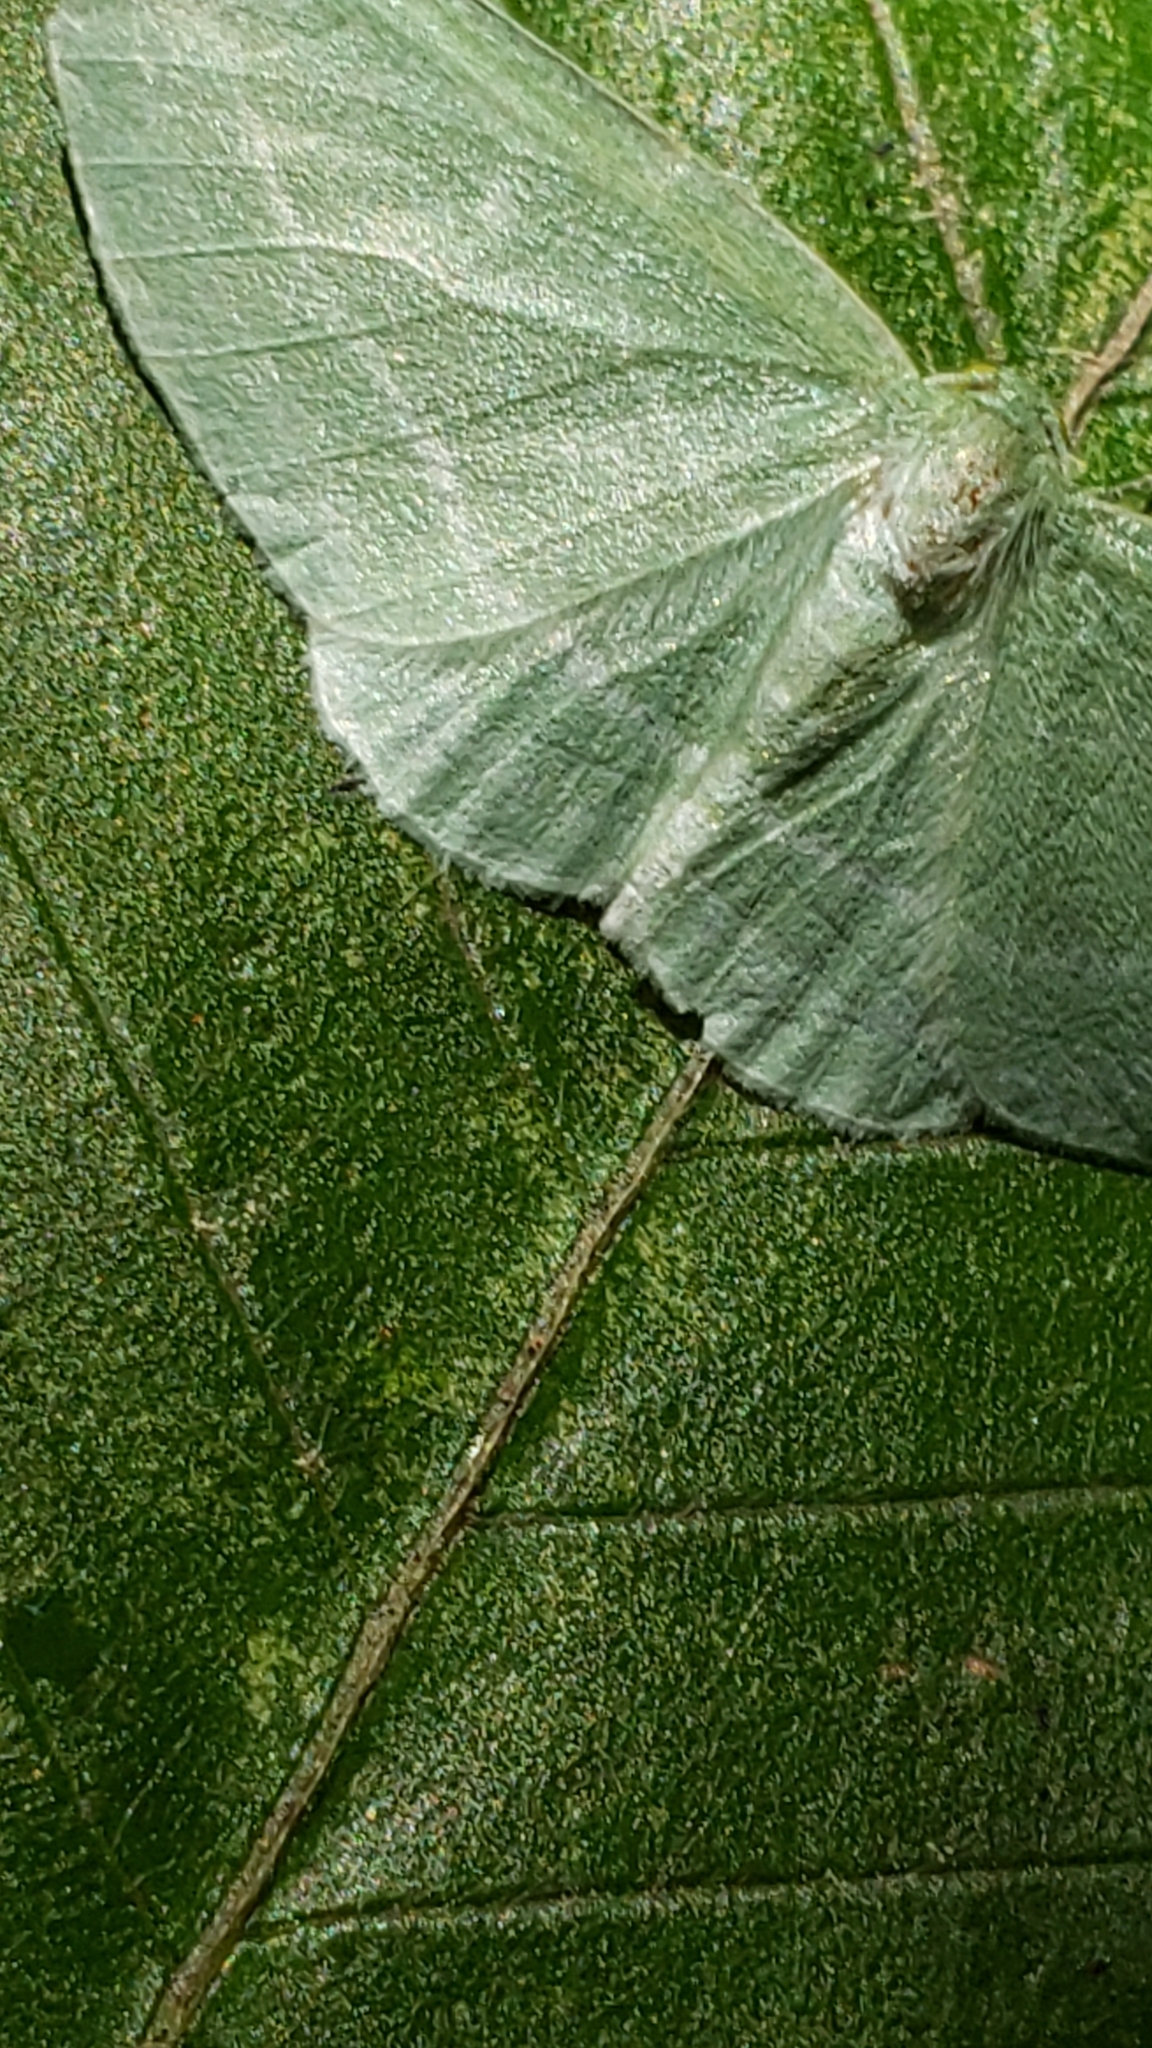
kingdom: Animalia
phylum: Arthropoda
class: Insecta
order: Lepidoptera
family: Geometridae
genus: Dyspteris
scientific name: Dyspteris abortivaria
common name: Bad-wing
